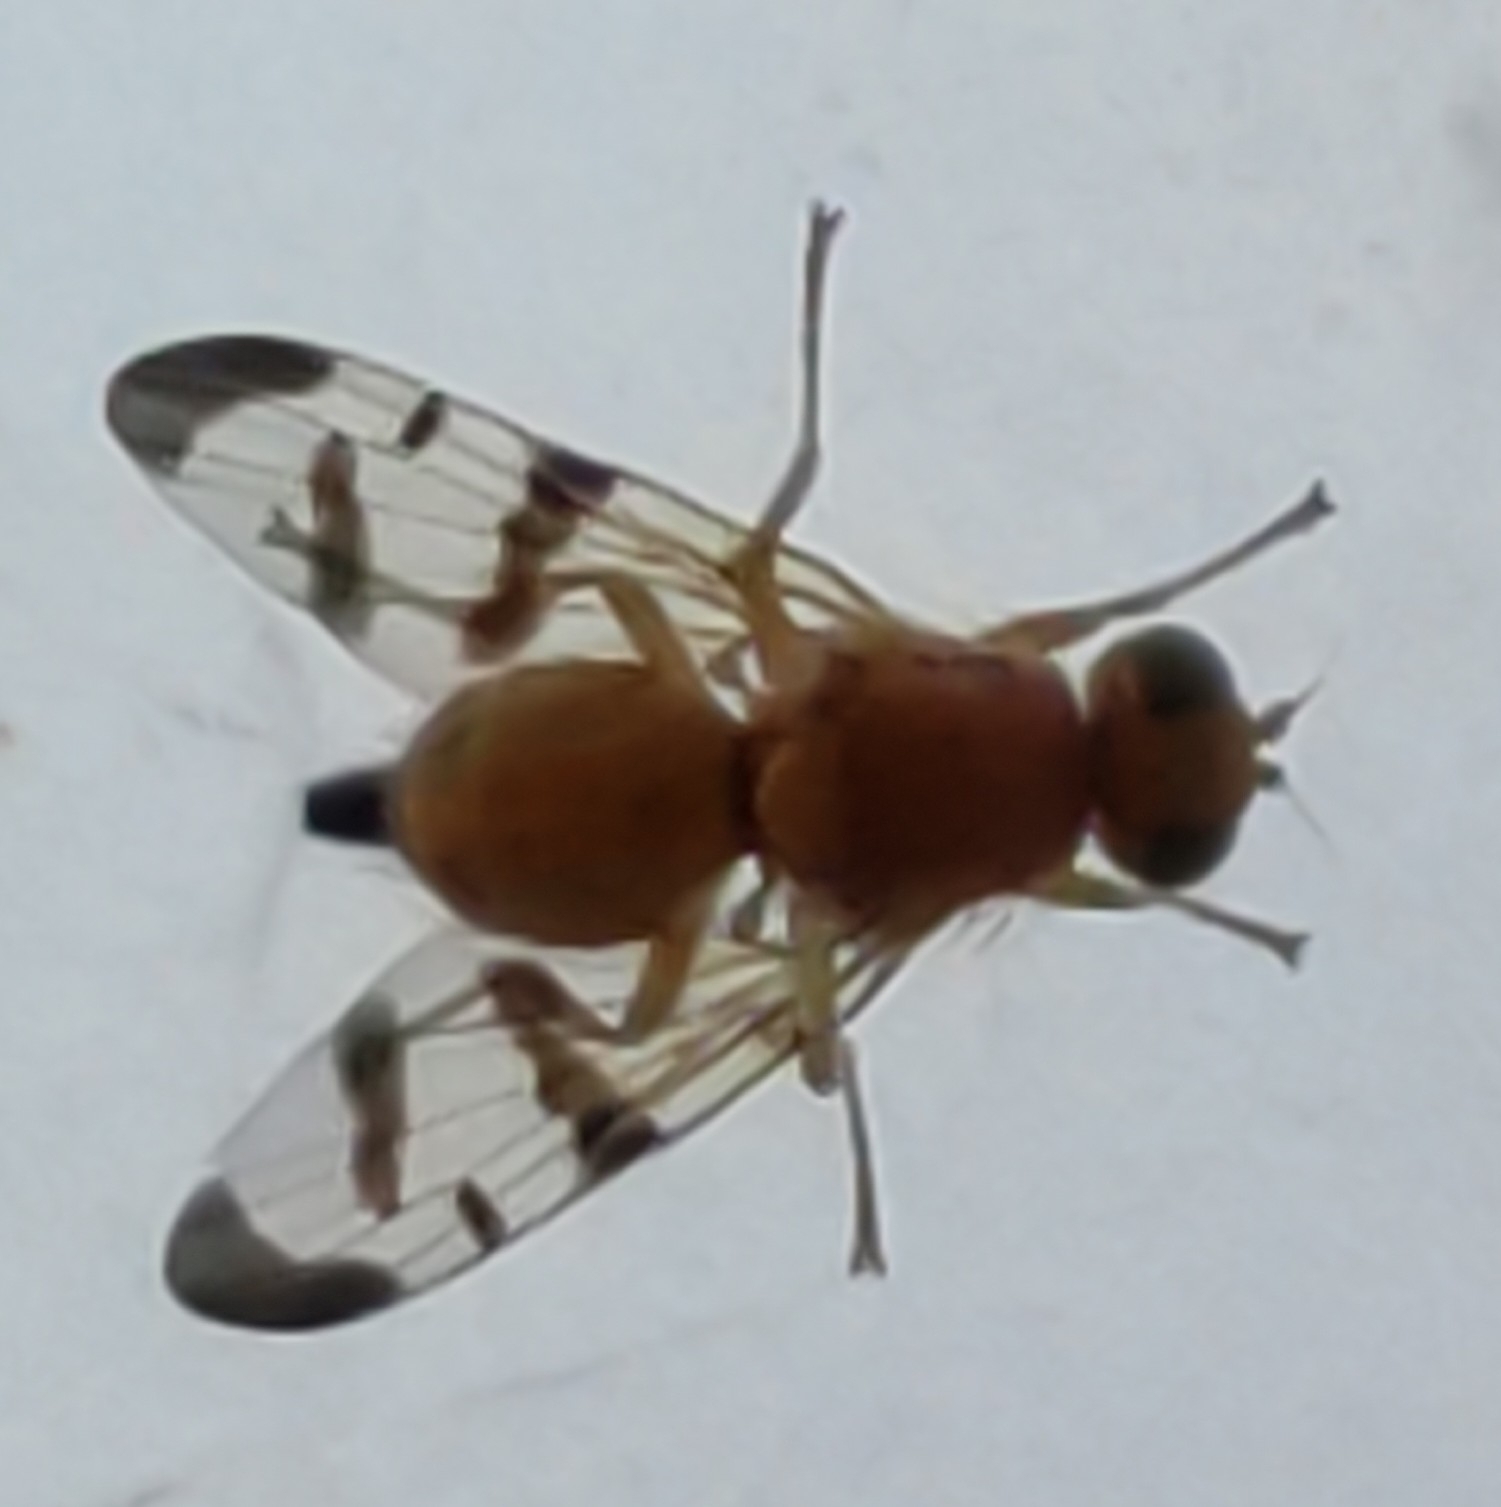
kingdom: Animalia
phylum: Arthropoda
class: Insecta
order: Diptera
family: Tephritidae
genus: Rhagoletis
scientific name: Rhagoletis meigenii
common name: Fruit fly
